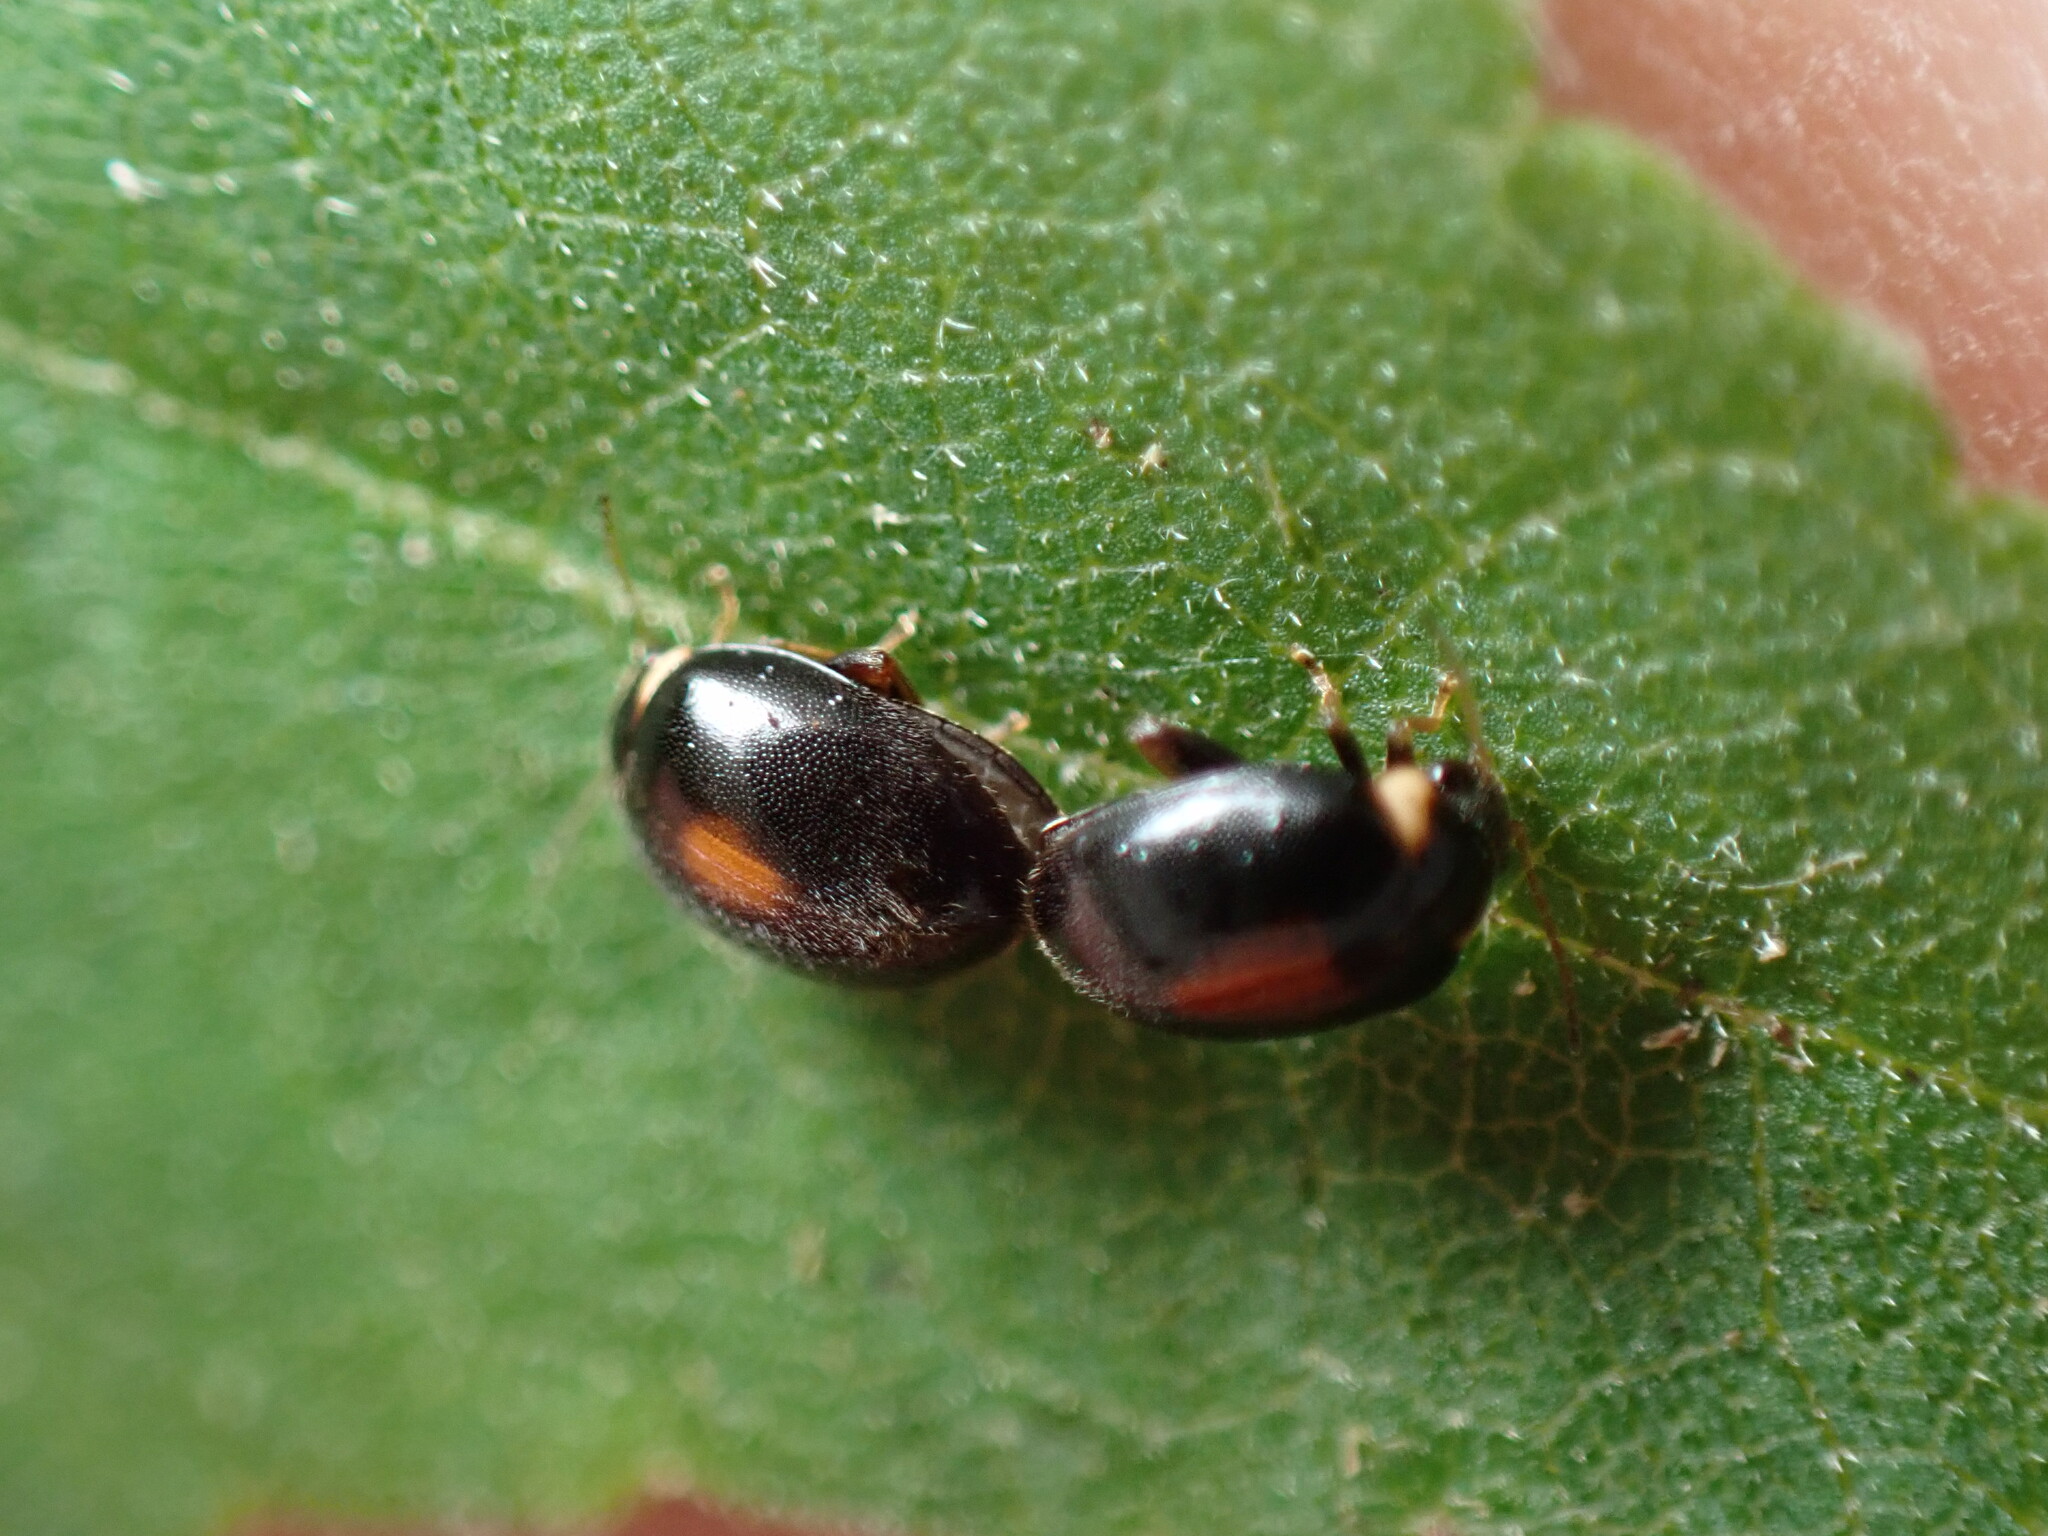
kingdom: Animalia
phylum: Arthropoda
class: Insecta
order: Coleoptera
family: Scirtidae
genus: Scirtes
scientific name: Scirtes orbiculatus
